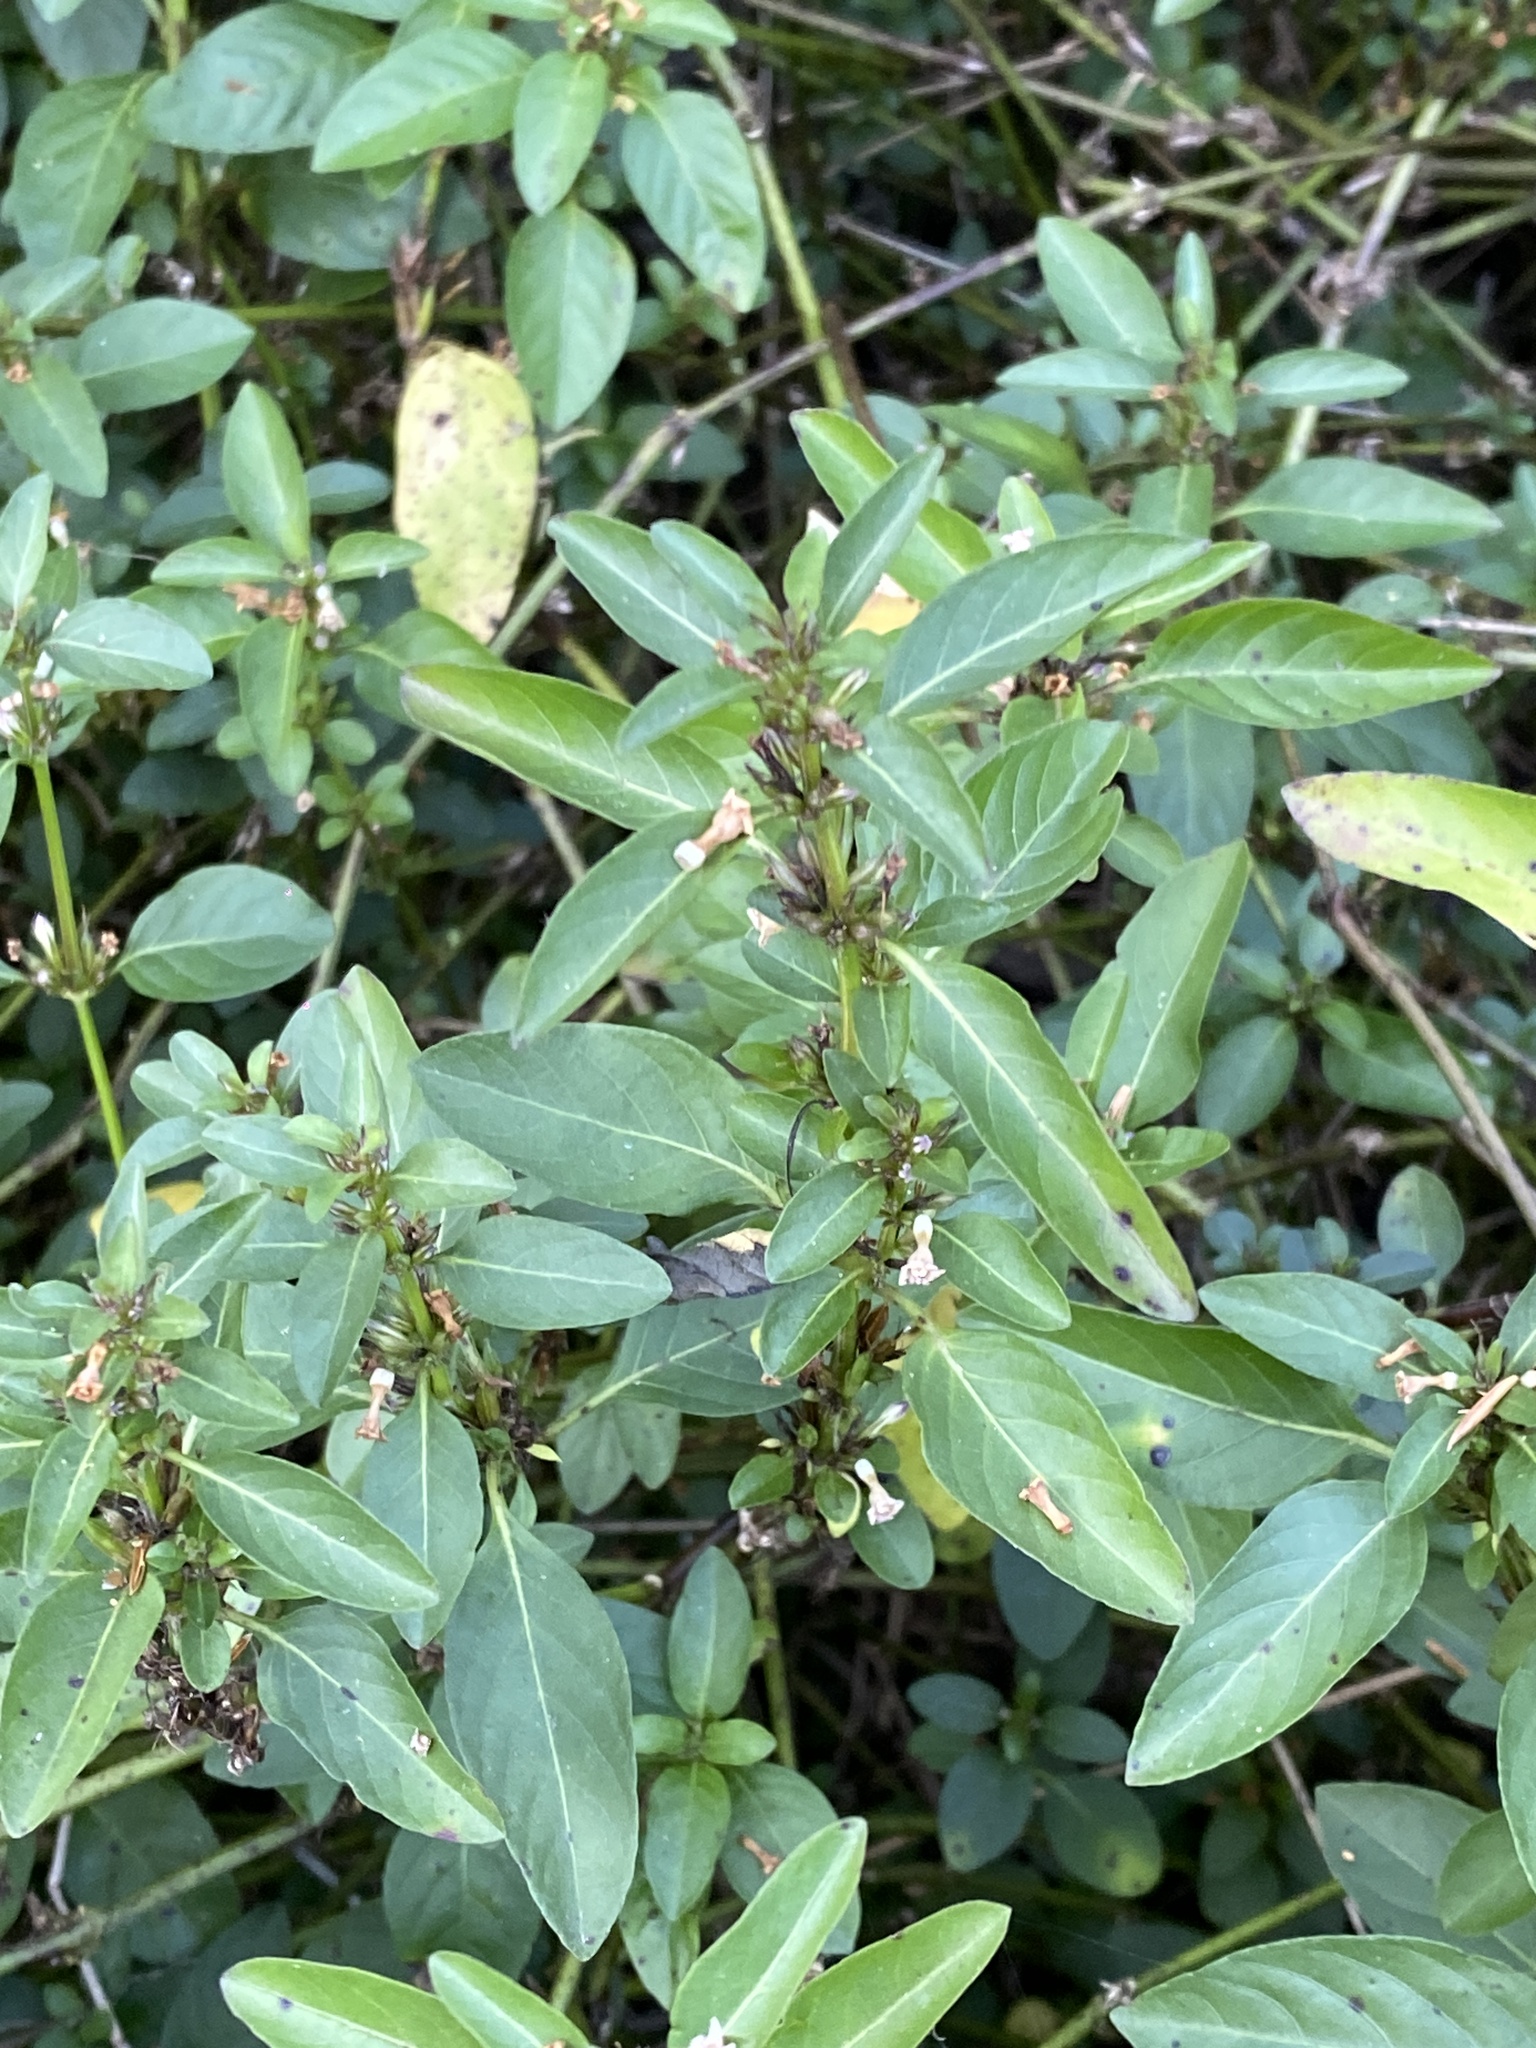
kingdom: Plantae
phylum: Tracheophyta
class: Magnoliopsida
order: Lamiales
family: Acanthaceae
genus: Hygrophila
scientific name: Hygrophila erecta
